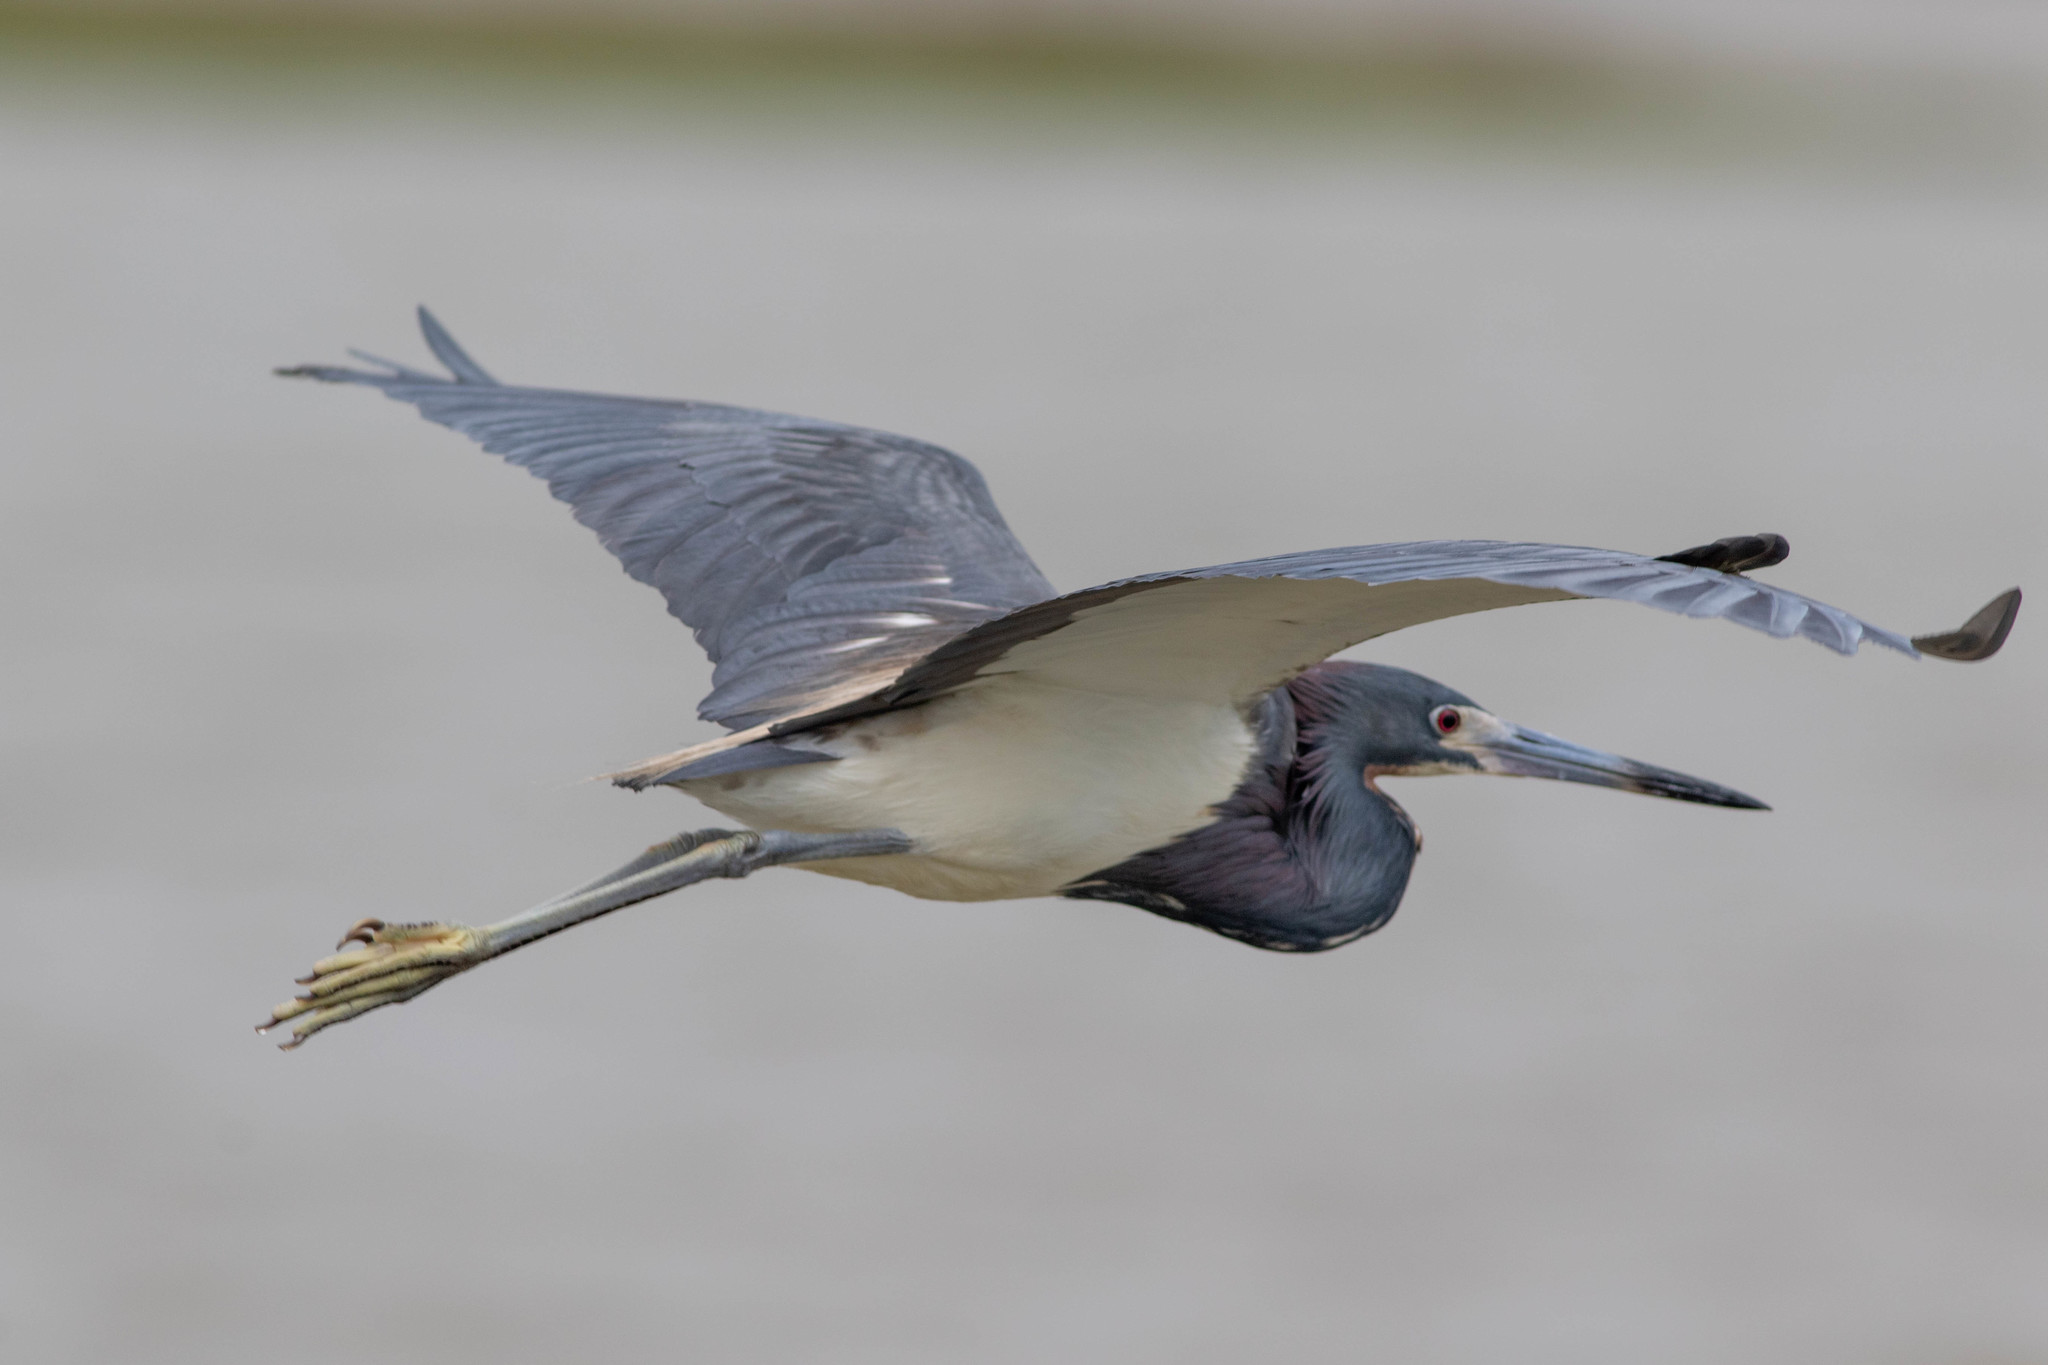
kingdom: Animalia
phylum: Chordata
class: Aves
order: Pelecaniformes
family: Ardeidae
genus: Egretta
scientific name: Egretta tricolor
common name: Tricolored heron
